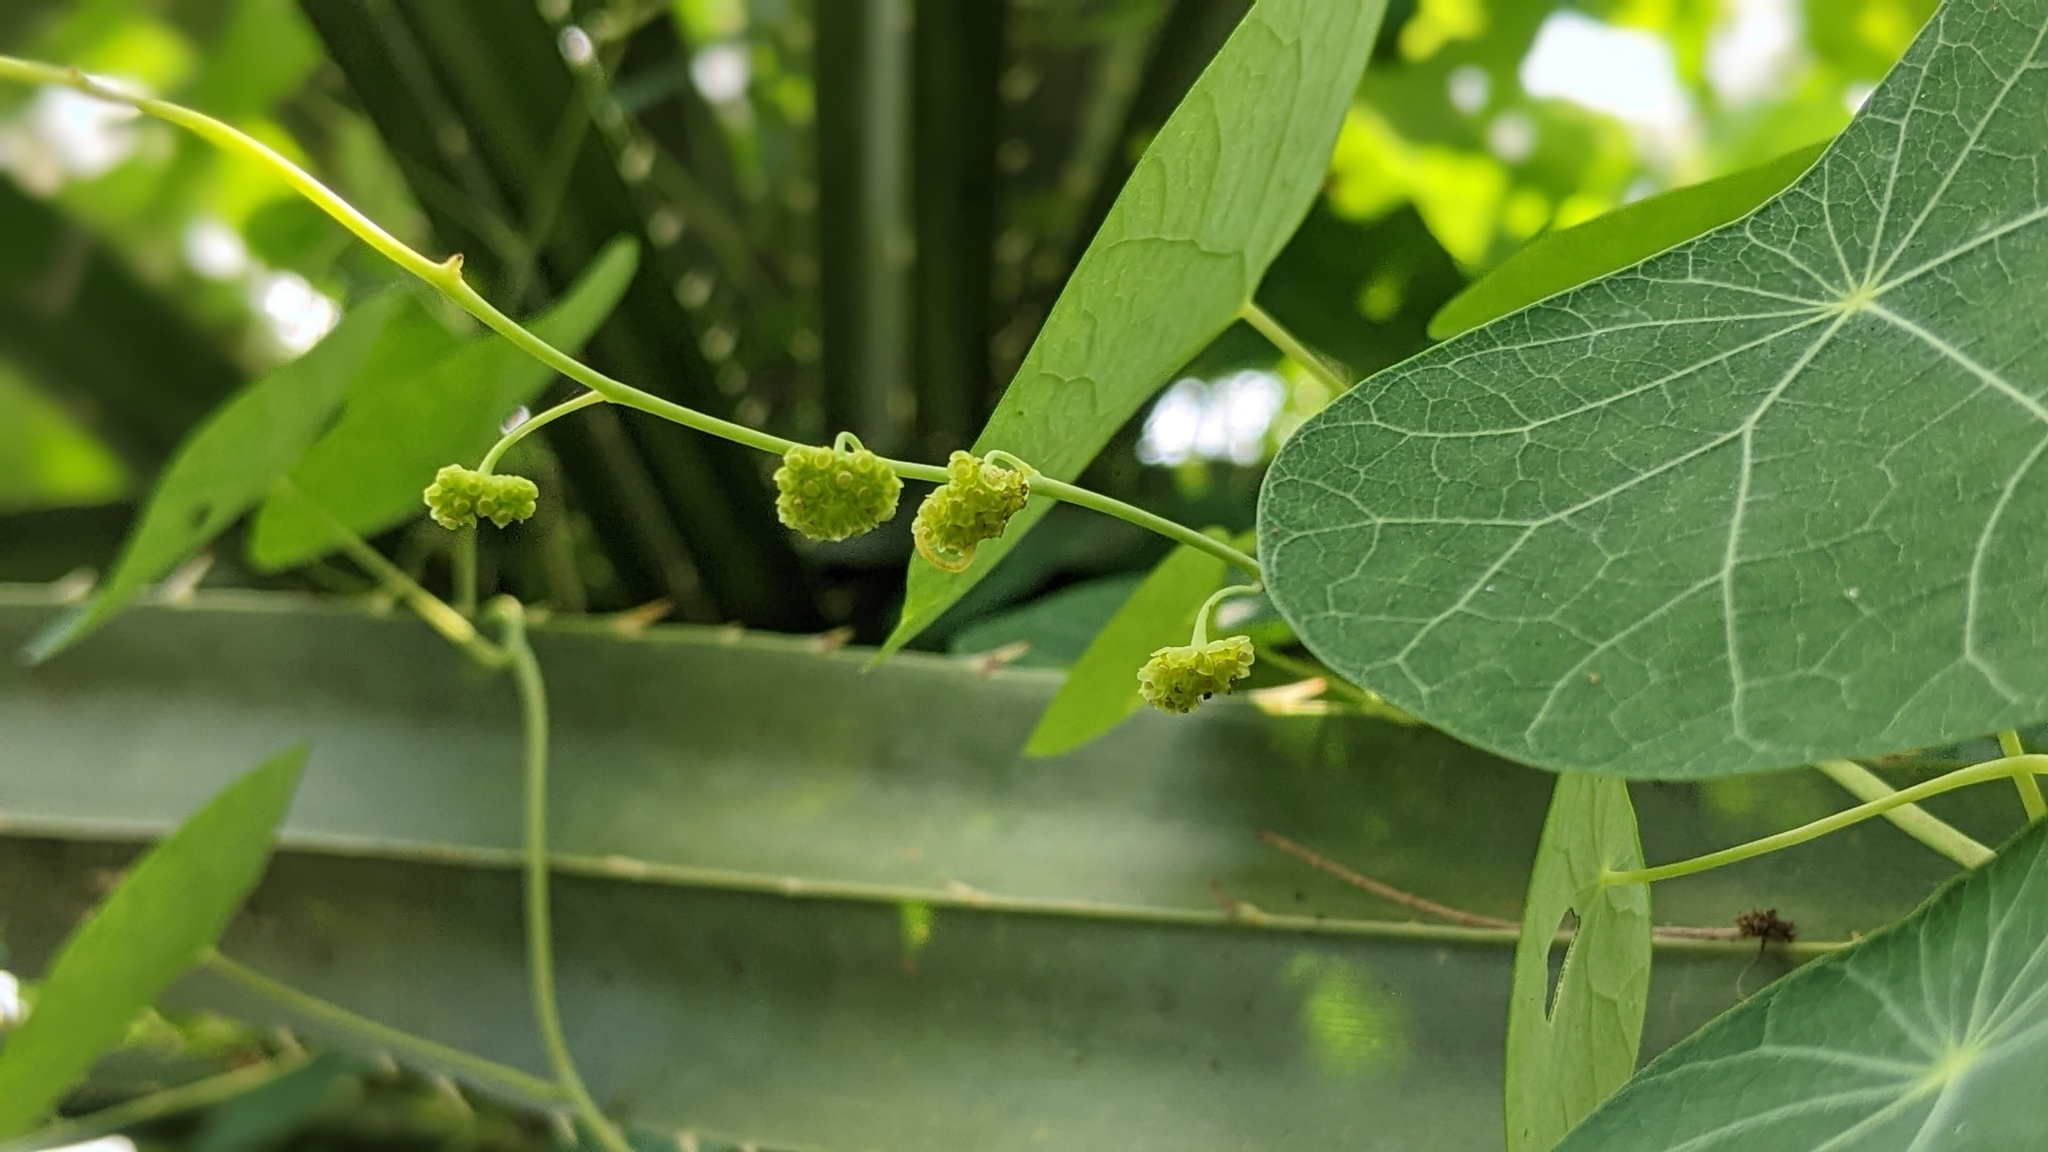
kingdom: Plantae
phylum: Tracheophyta
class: Magnoliopsida
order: Ranunculales
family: Menispermaceae
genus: Stephania
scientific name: Stephania cephalantha
